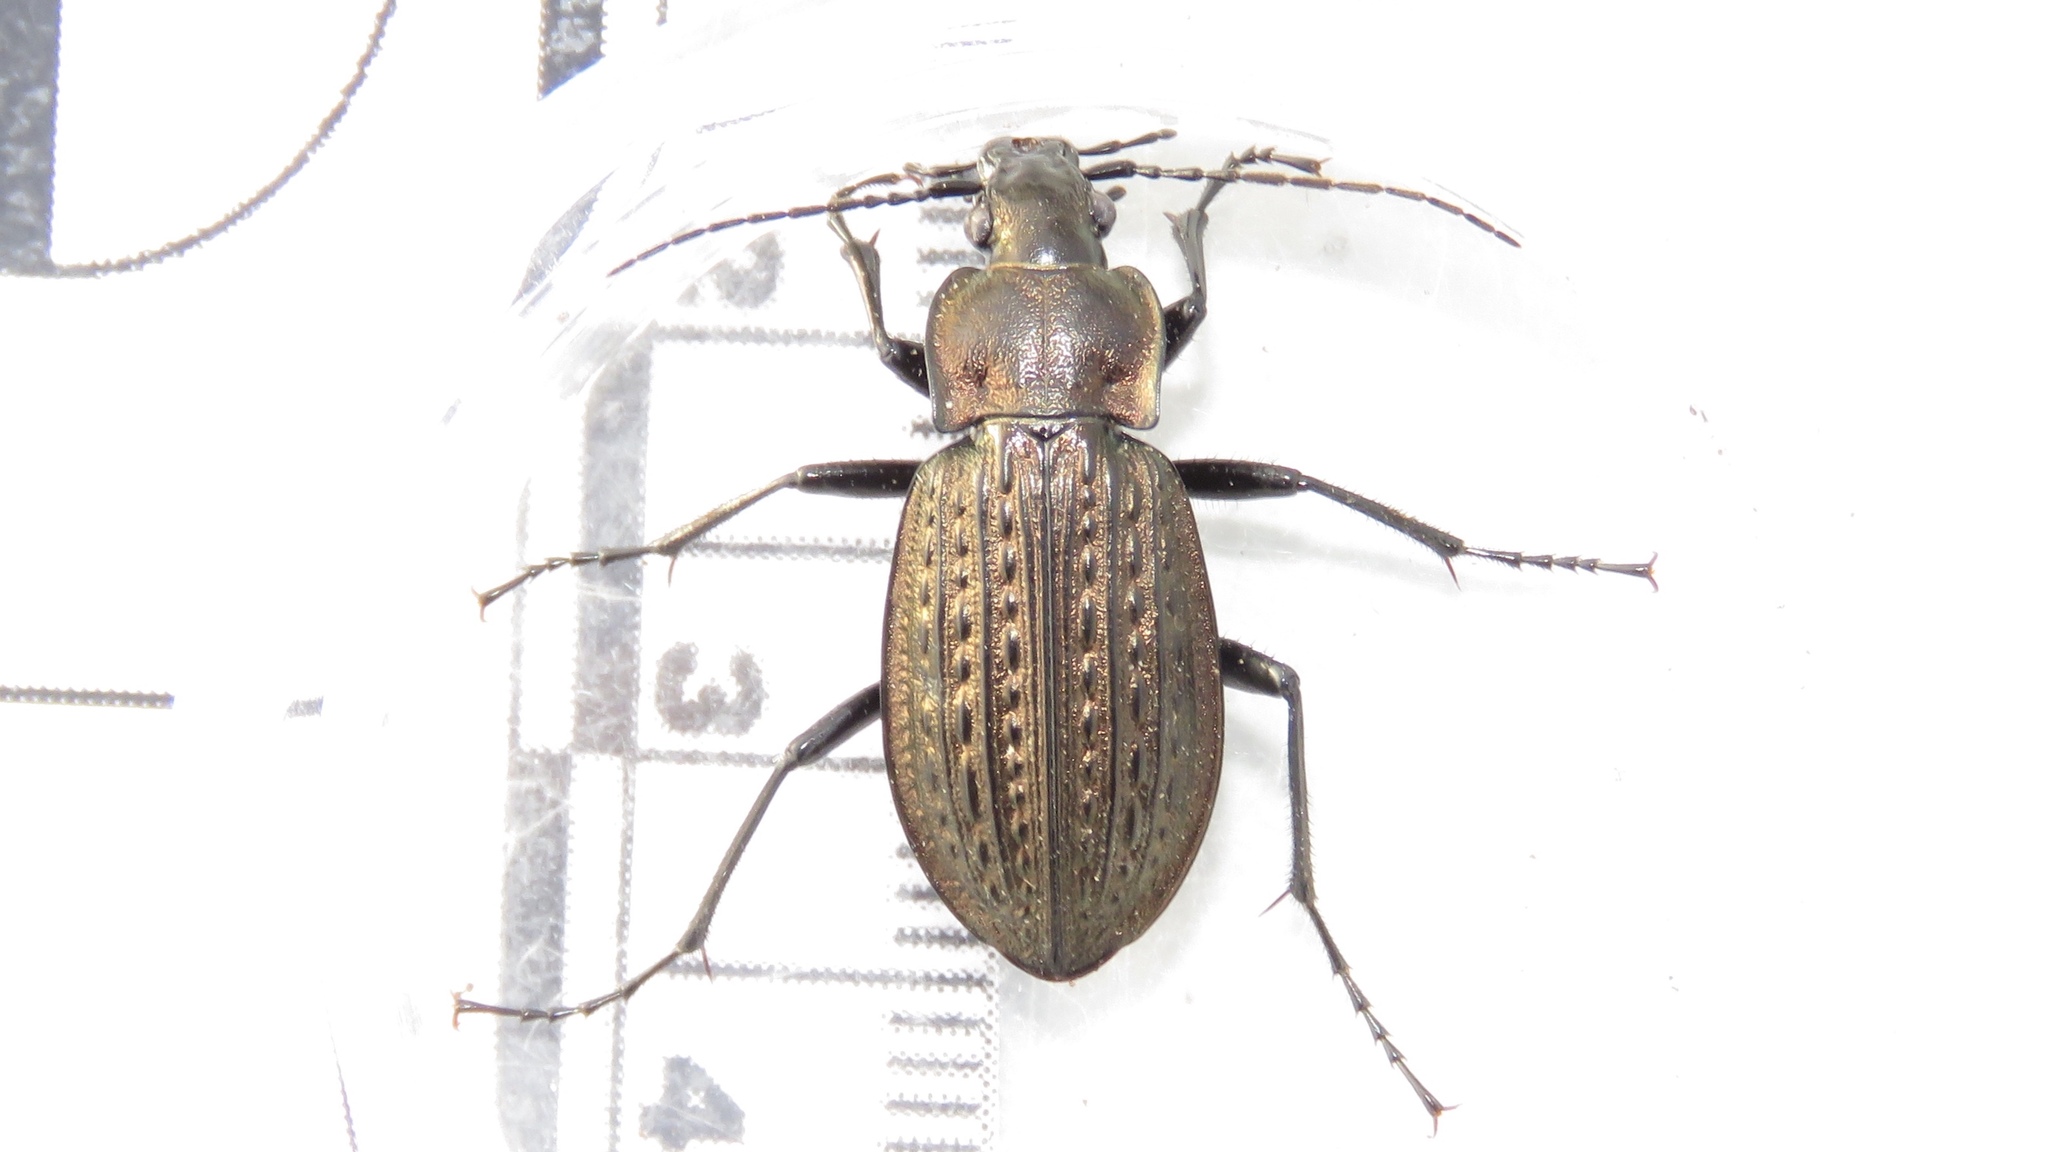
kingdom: Animalia
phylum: Arthropoda
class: Insecta
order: Coleoptera
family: Carabidae
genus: Carabus
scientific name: Carabus granulatus
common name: Granulate ground beetle
